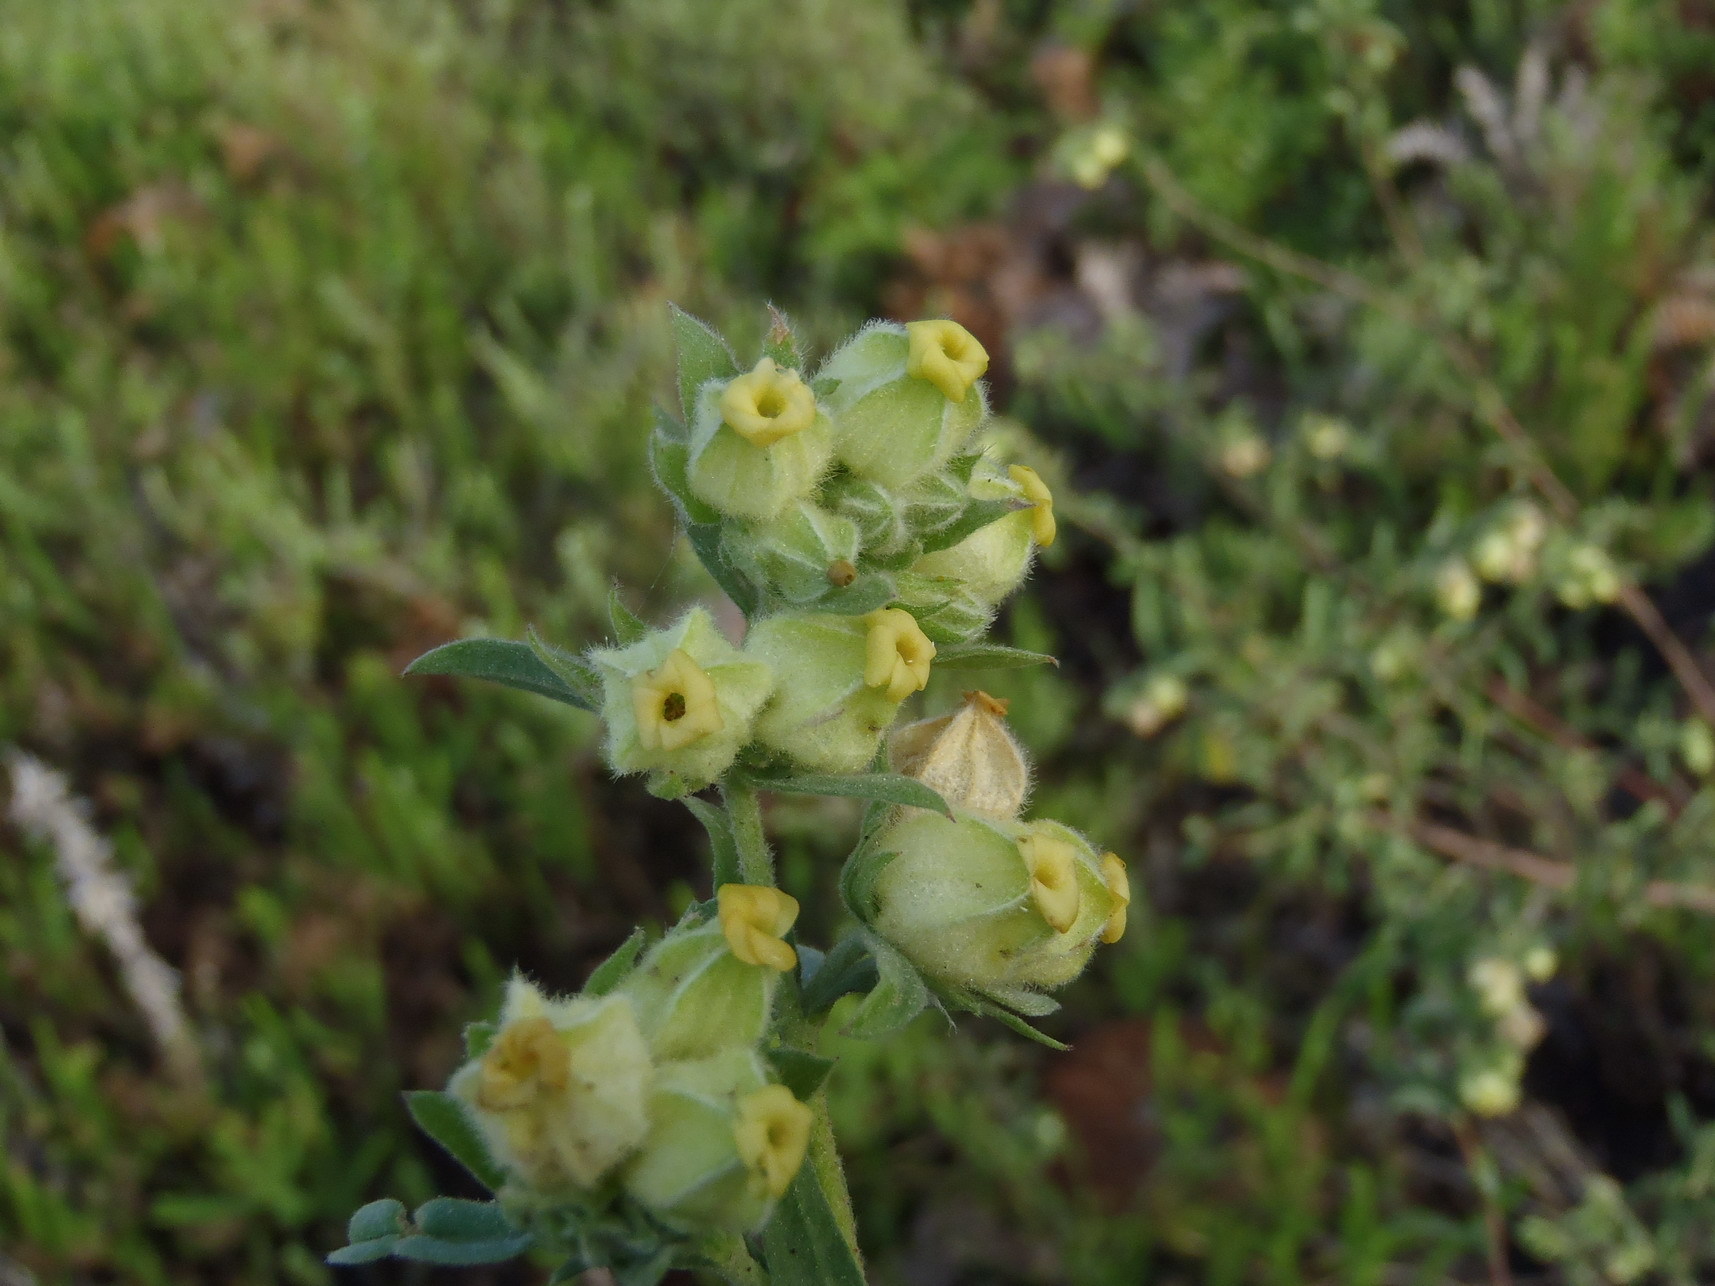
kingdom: Plantae
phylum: Tracheophyta
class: Magnoliopsida
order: Malvales
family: Malvaceae
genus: Hermannia
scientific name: Hermannia hyssopifolia
